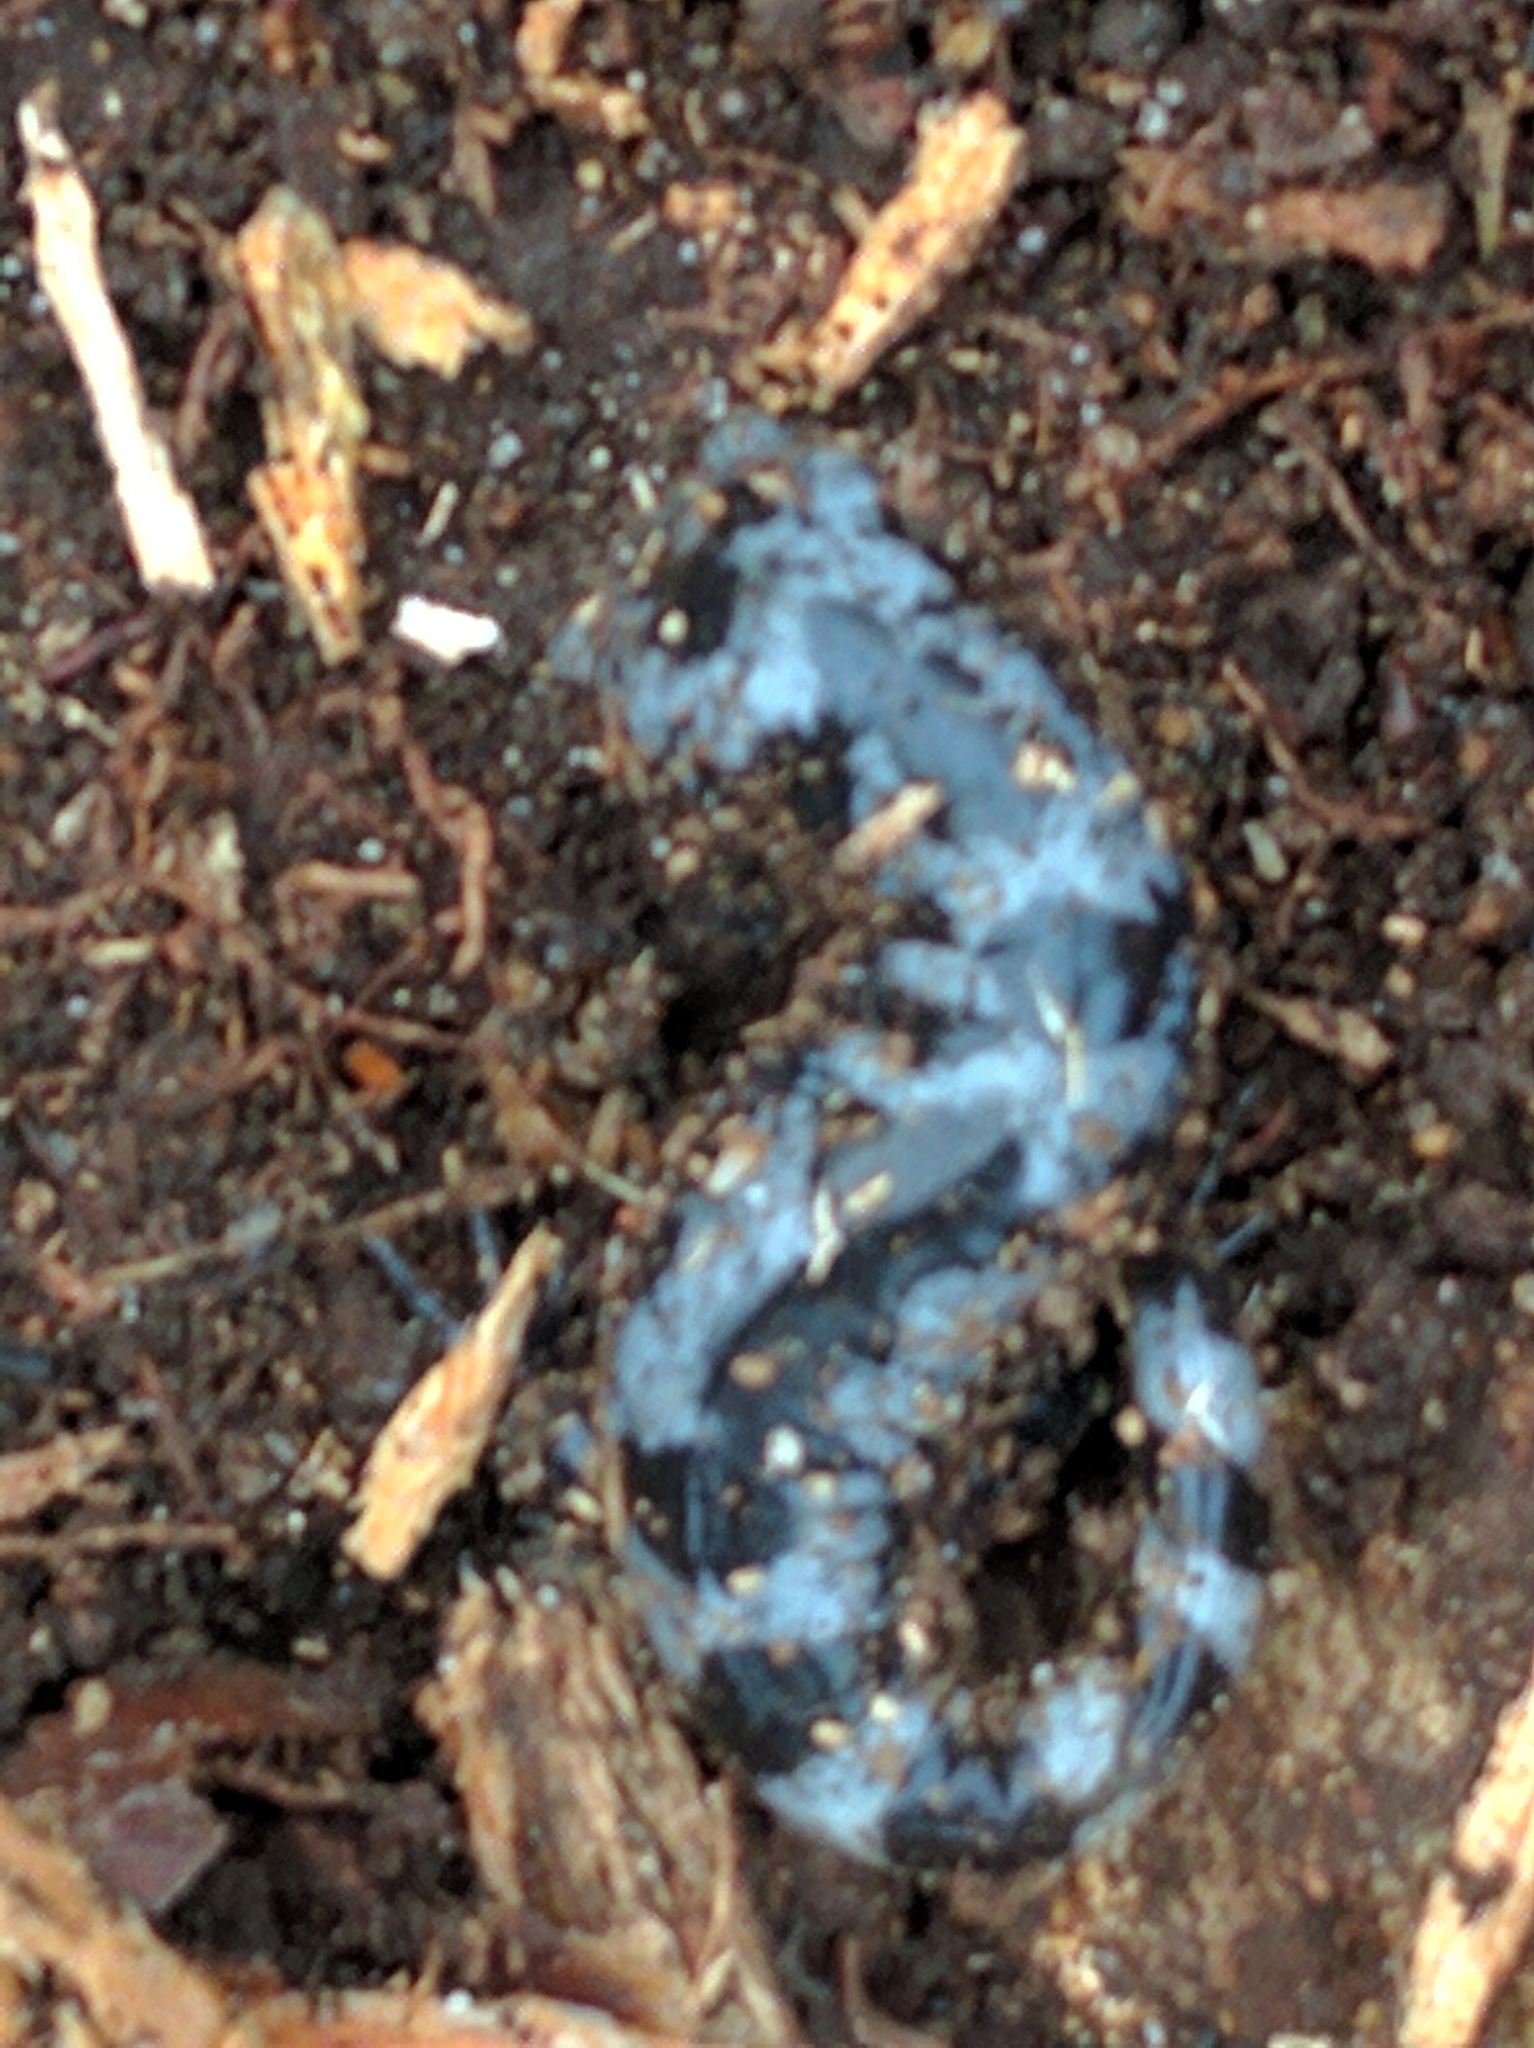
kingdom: Animalia
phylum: Chordata
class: Amphibia
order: Caudata
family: Ambystomatidae
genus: Ambystoma
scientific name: Ambystoma opacum
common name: Marbled salamander
